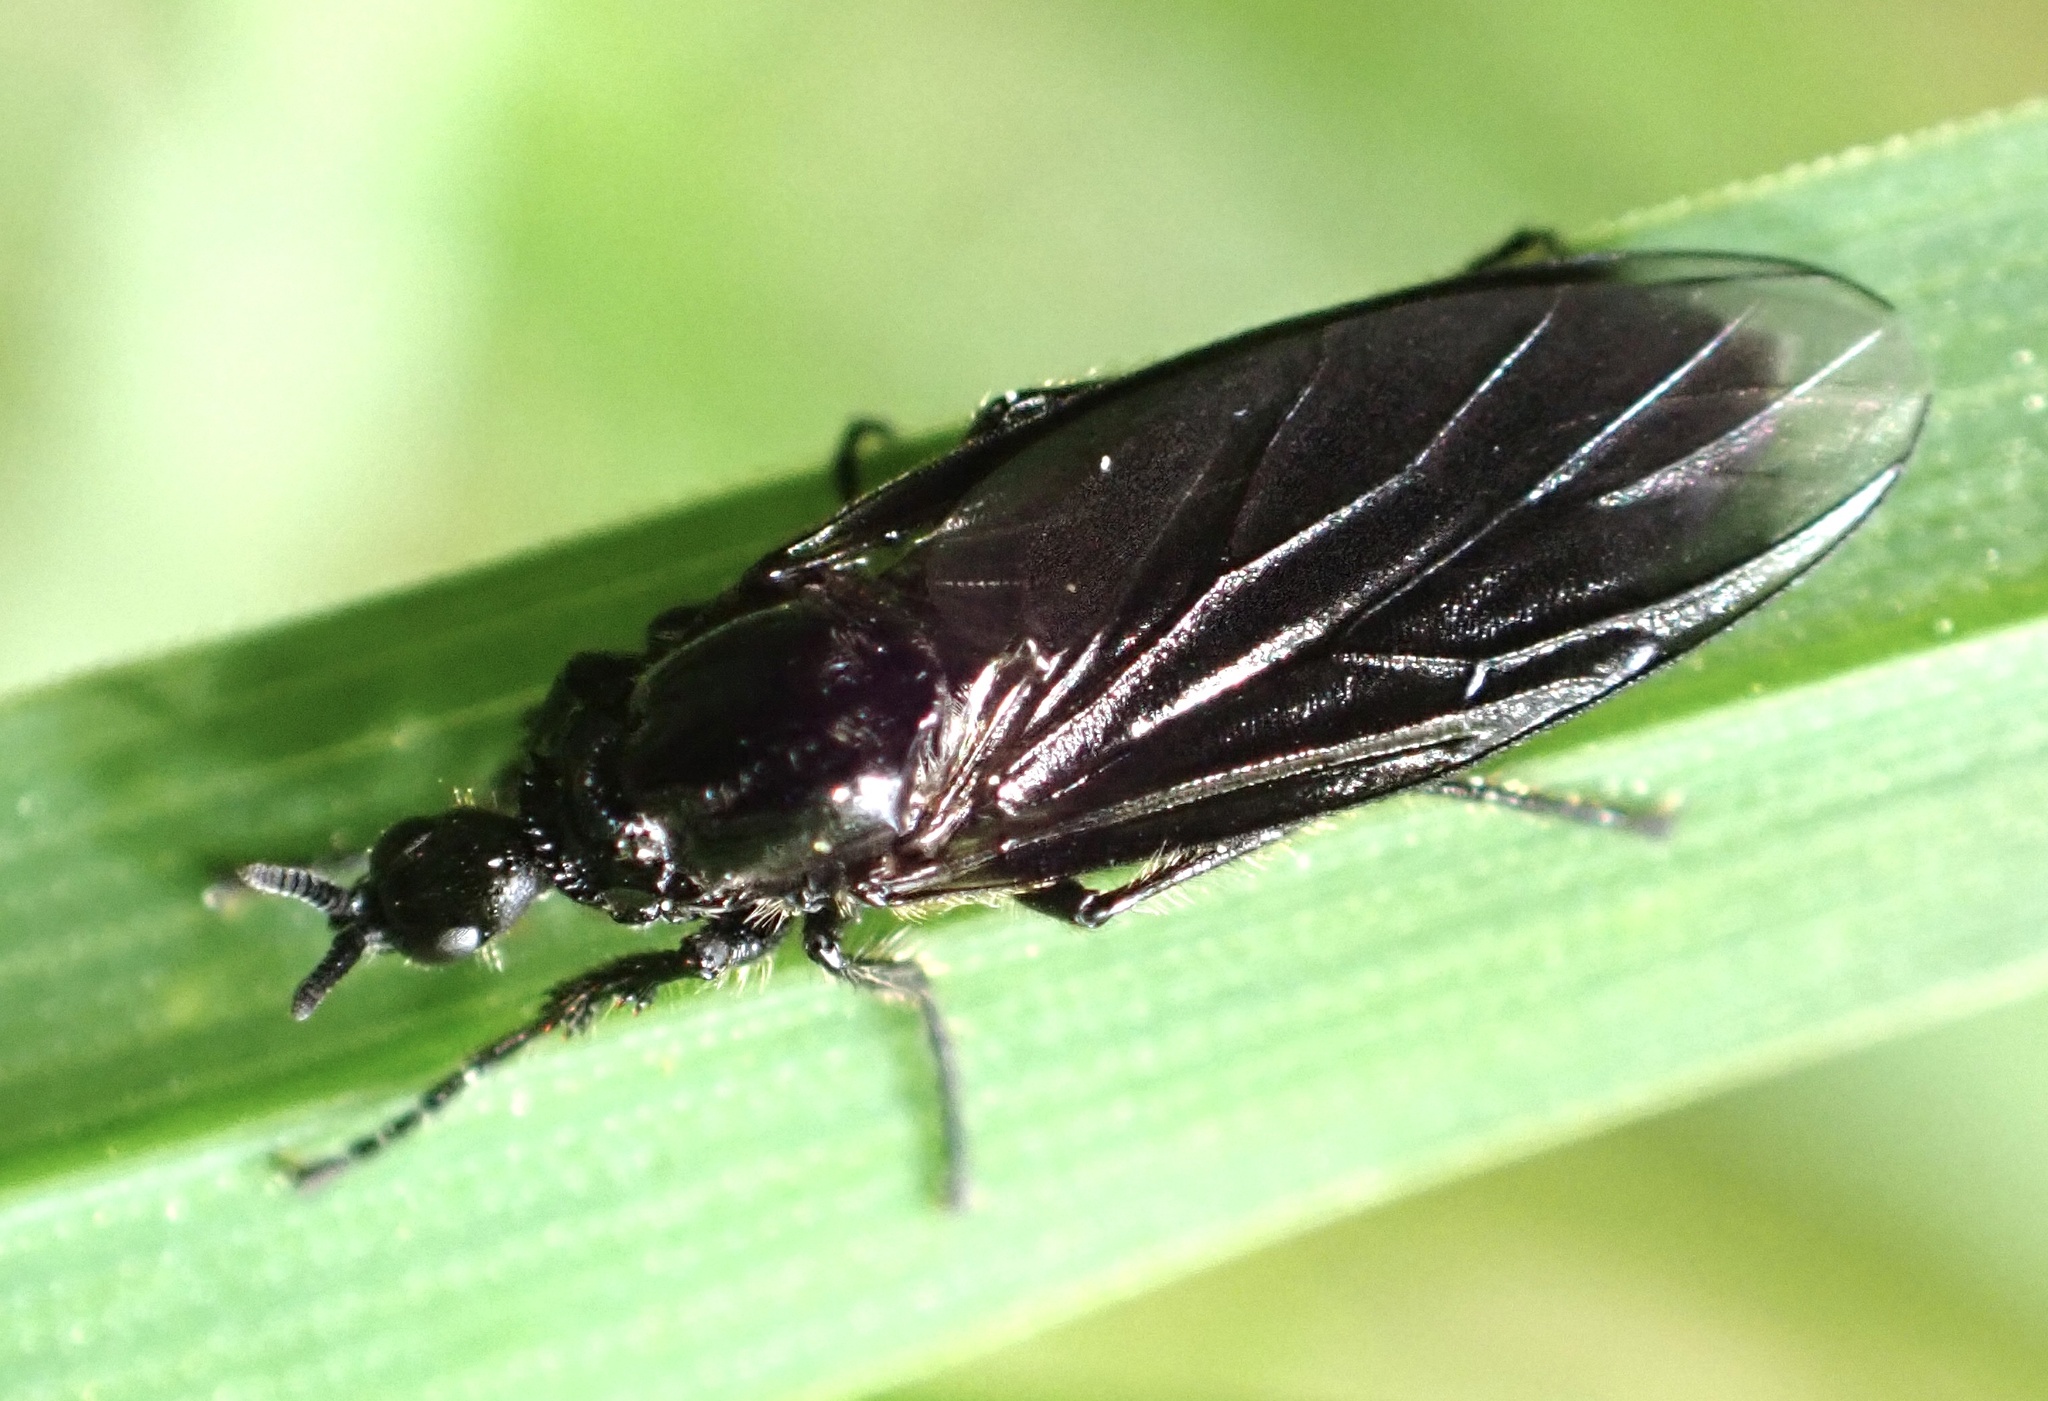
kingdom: Animalia
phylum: Arthropoda
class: Insecta
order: Diptera
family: Bibionidae
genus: Dilophus
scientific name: Dilophus febrilis
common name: Fever fly
